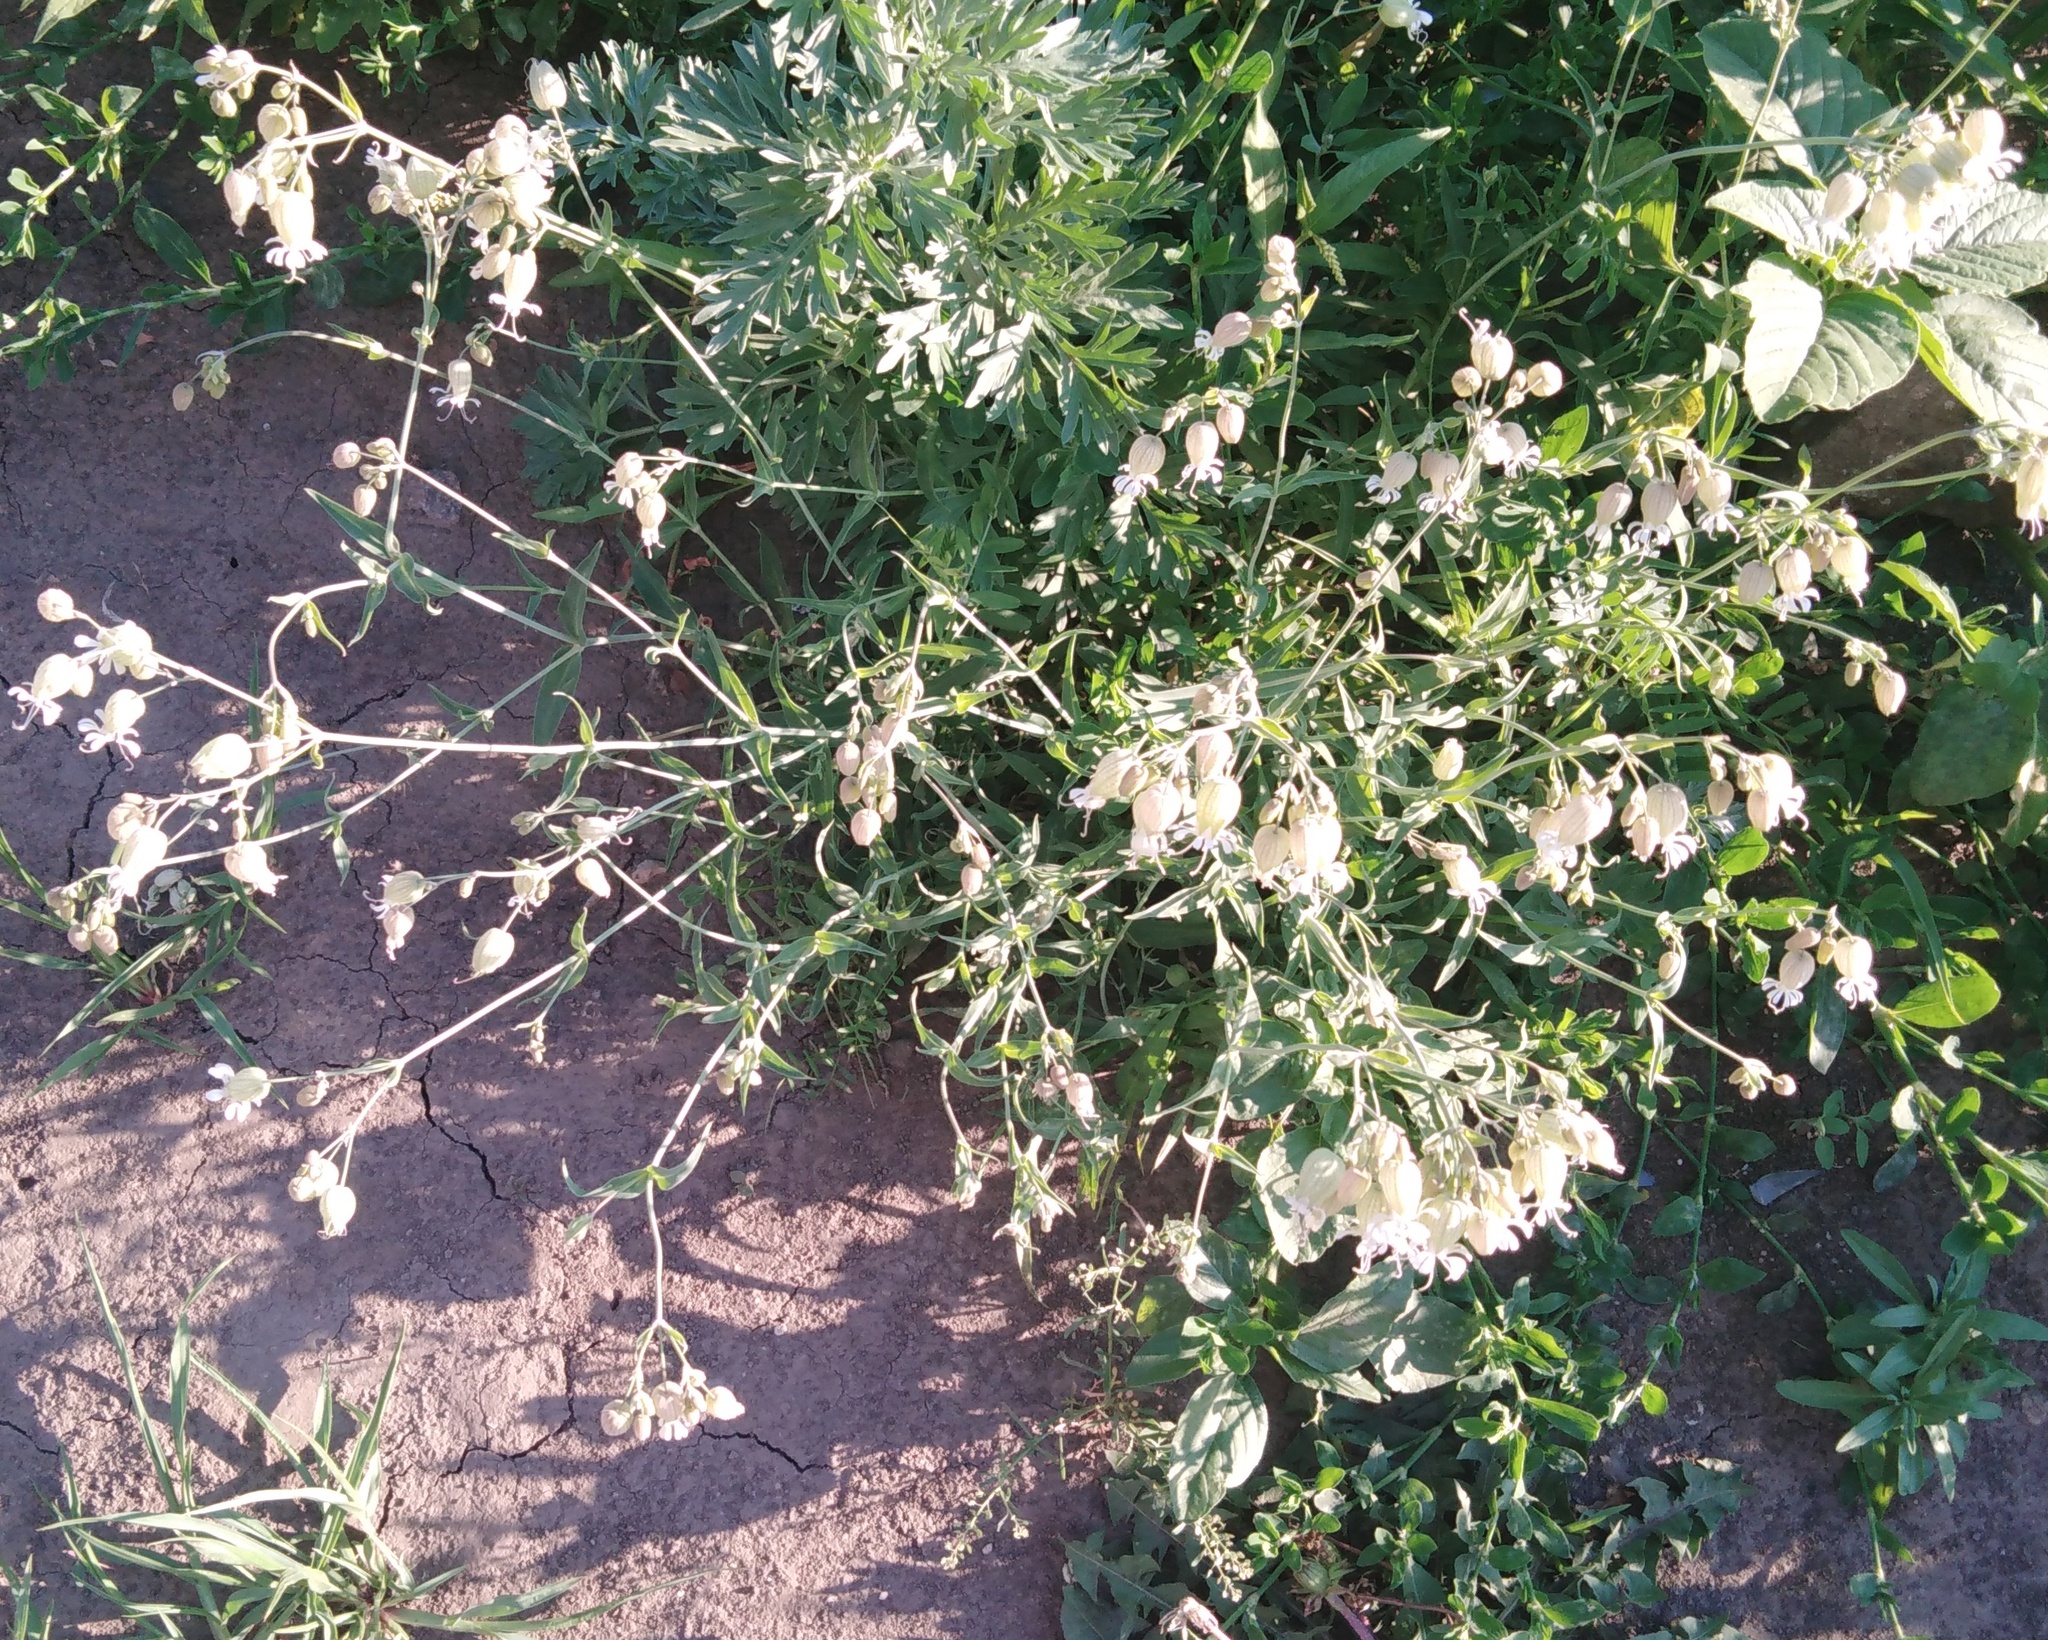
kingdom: Plantae
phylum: Tracheophyta
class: Magnoliopsida
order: Caryophyllales
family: Caryophyllaceae
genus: Silene
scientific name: Silene vulgaris
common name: Bladder campion
